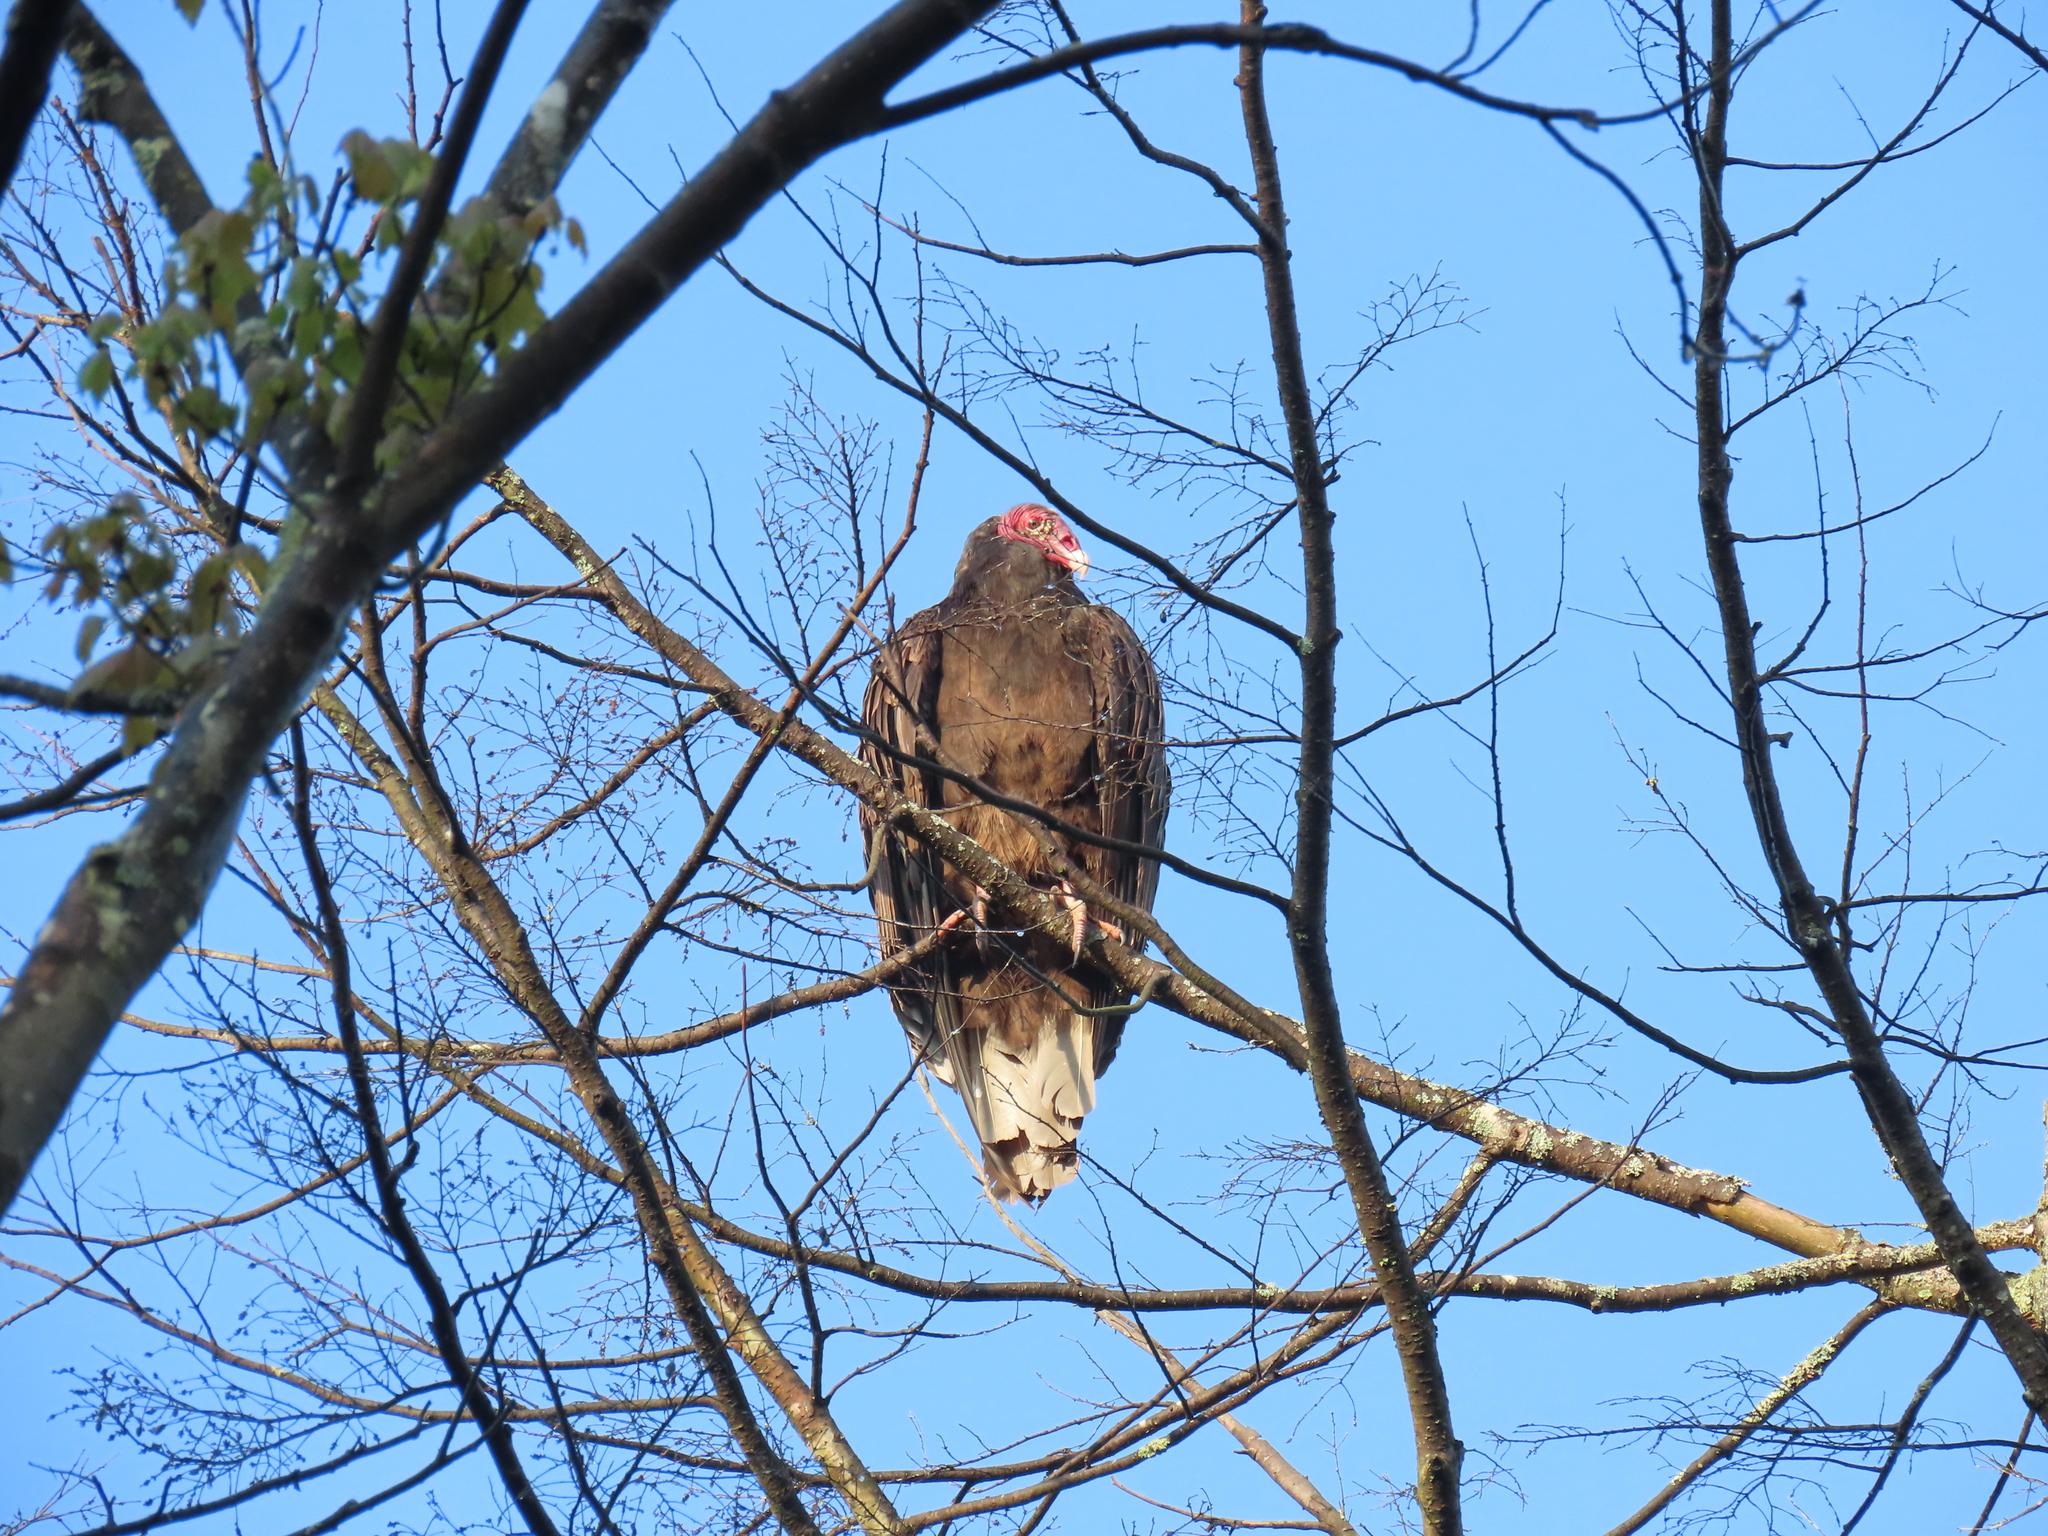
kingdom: Animalia
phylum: Chordata
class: Aves
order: Accipitriformes
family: Cathartidae
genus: Cathartes
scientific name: Cathartes aura
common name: Turkey vulture
